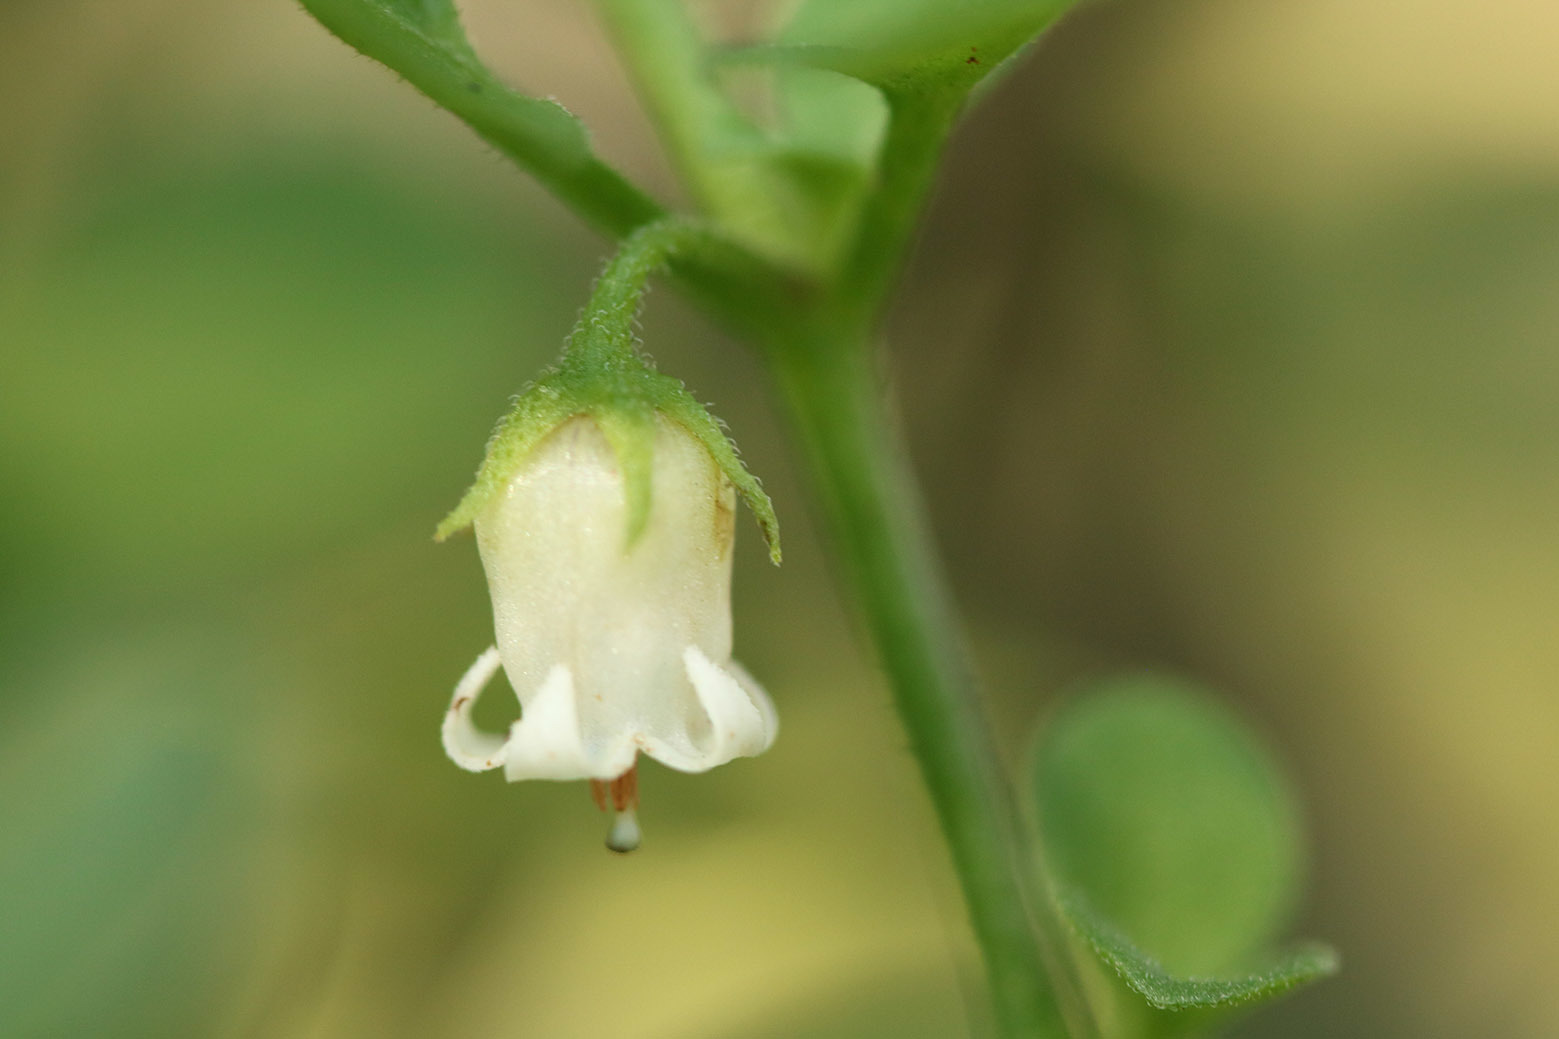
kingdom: Plantae
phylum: Tracheophyta
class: Magnoliopsida
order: Solanales
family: Solanaceae
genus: Salpichroa
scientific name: Salpichroa origanifolia
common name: Lily-of-the-valley-vine
